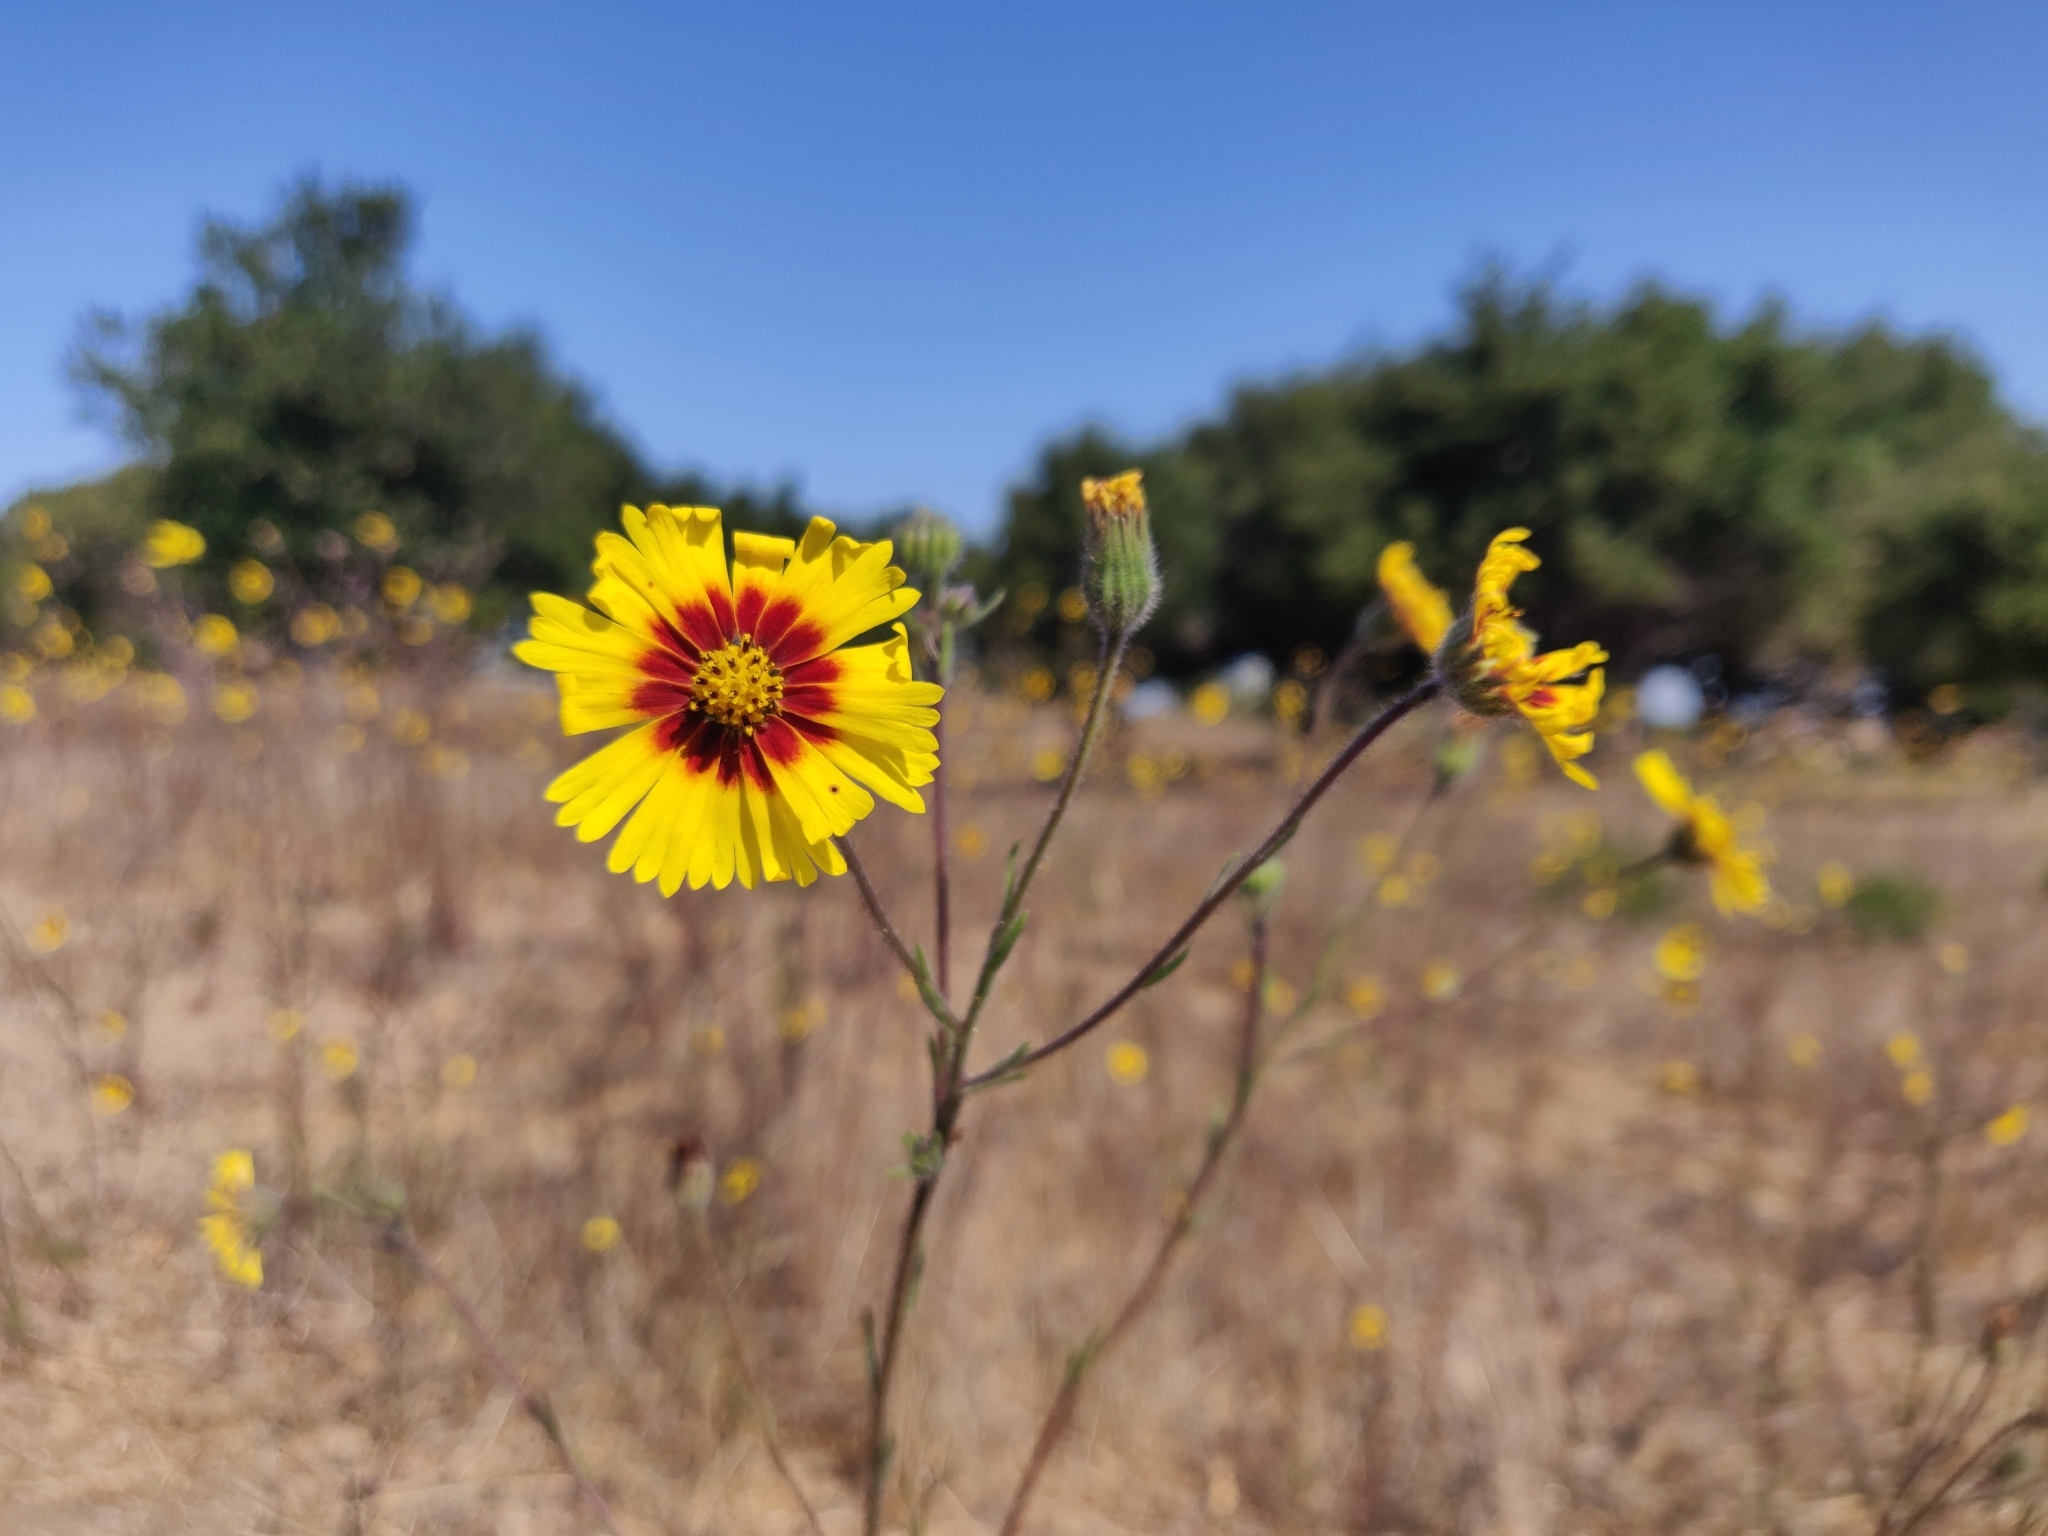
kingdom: Plantae
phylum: Tracheophyta
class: Magnoliopsida
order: Asterales
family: Asteraceae
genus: Madia
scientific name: Madia elegans
